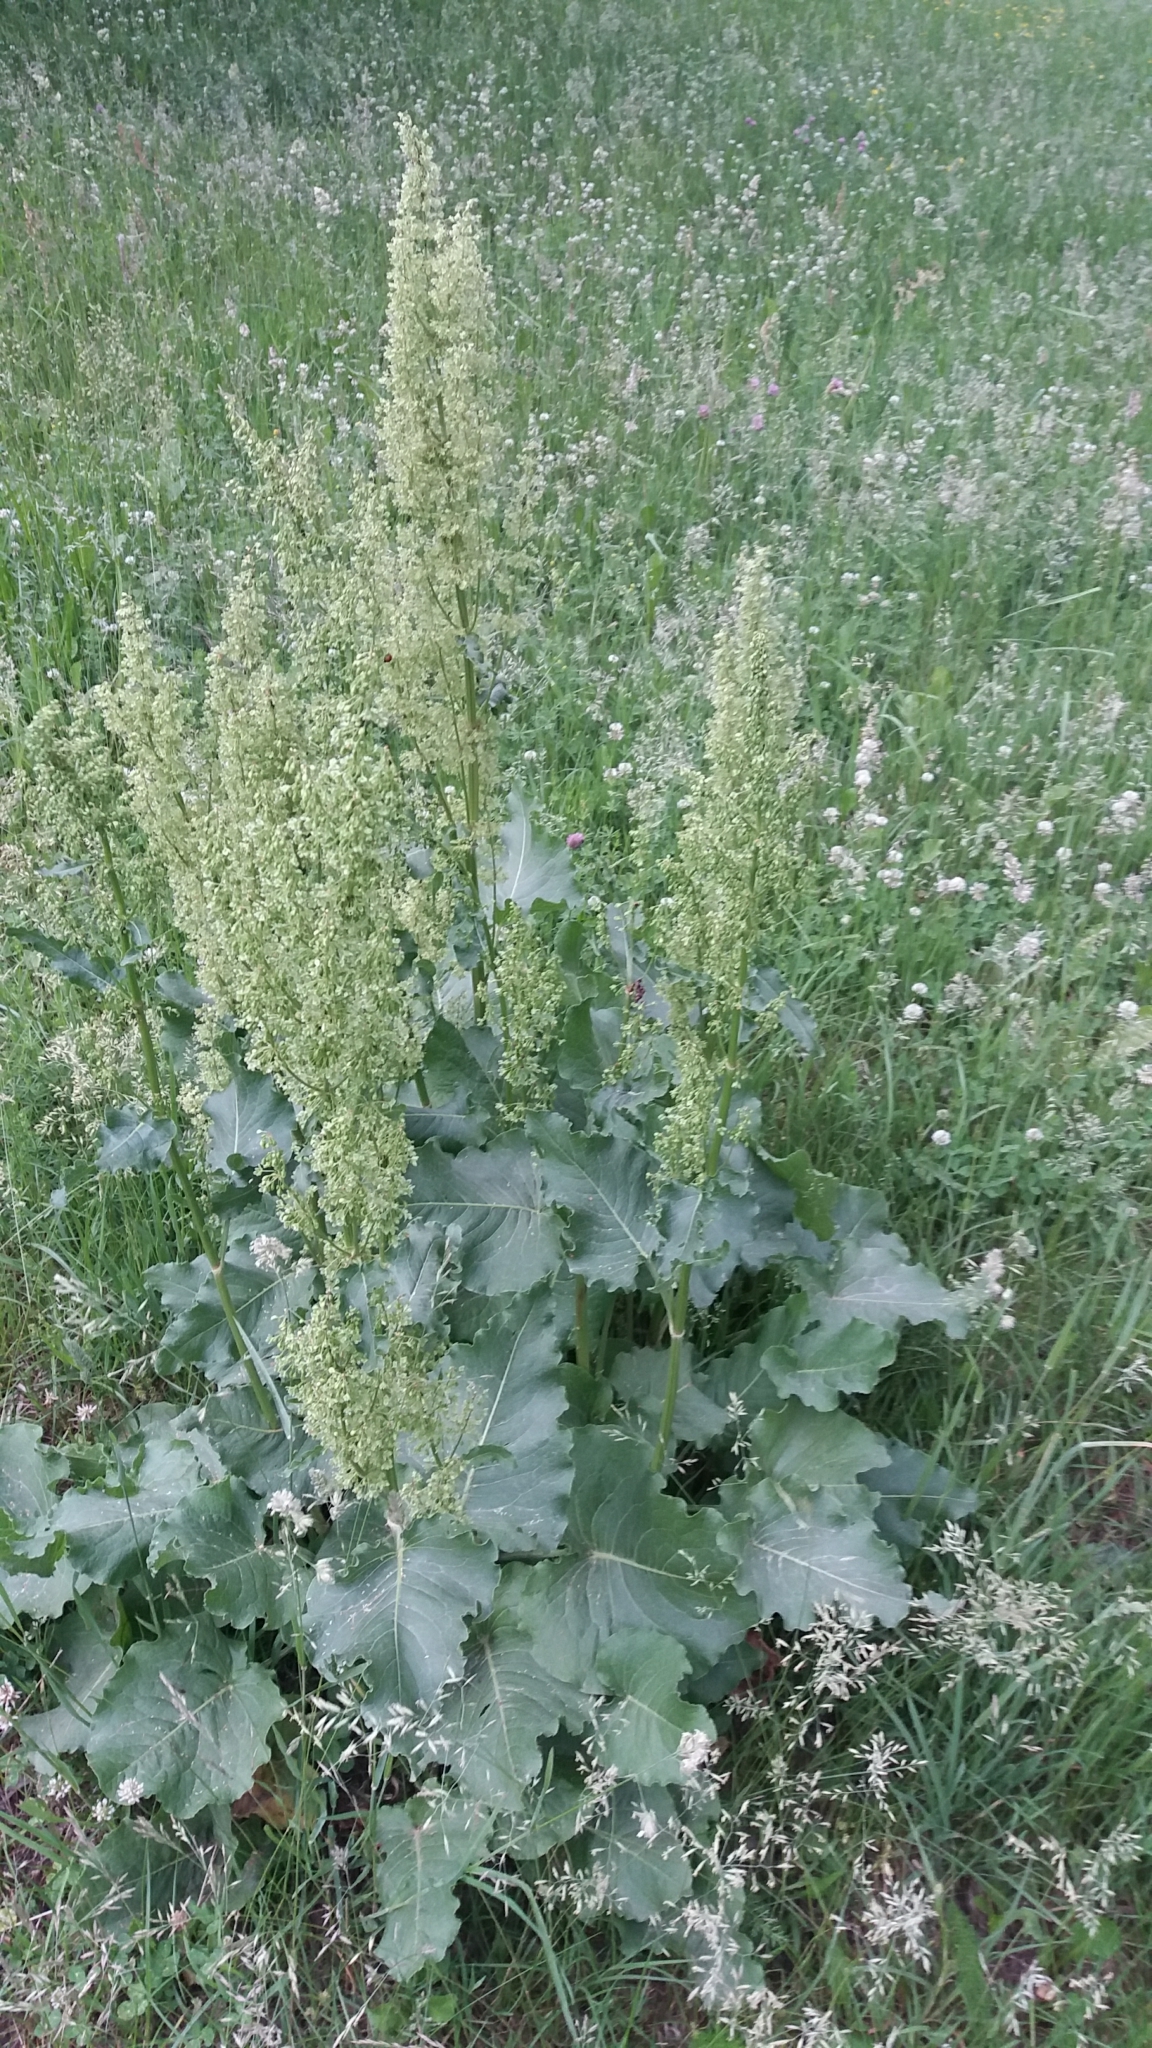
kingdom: Plantae
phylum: Tracheophyta
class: Magnoliopsida
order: Caryophyllales
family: Polygonaceae
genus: Rumex
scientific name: Rumex confertus
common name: Russian dock
